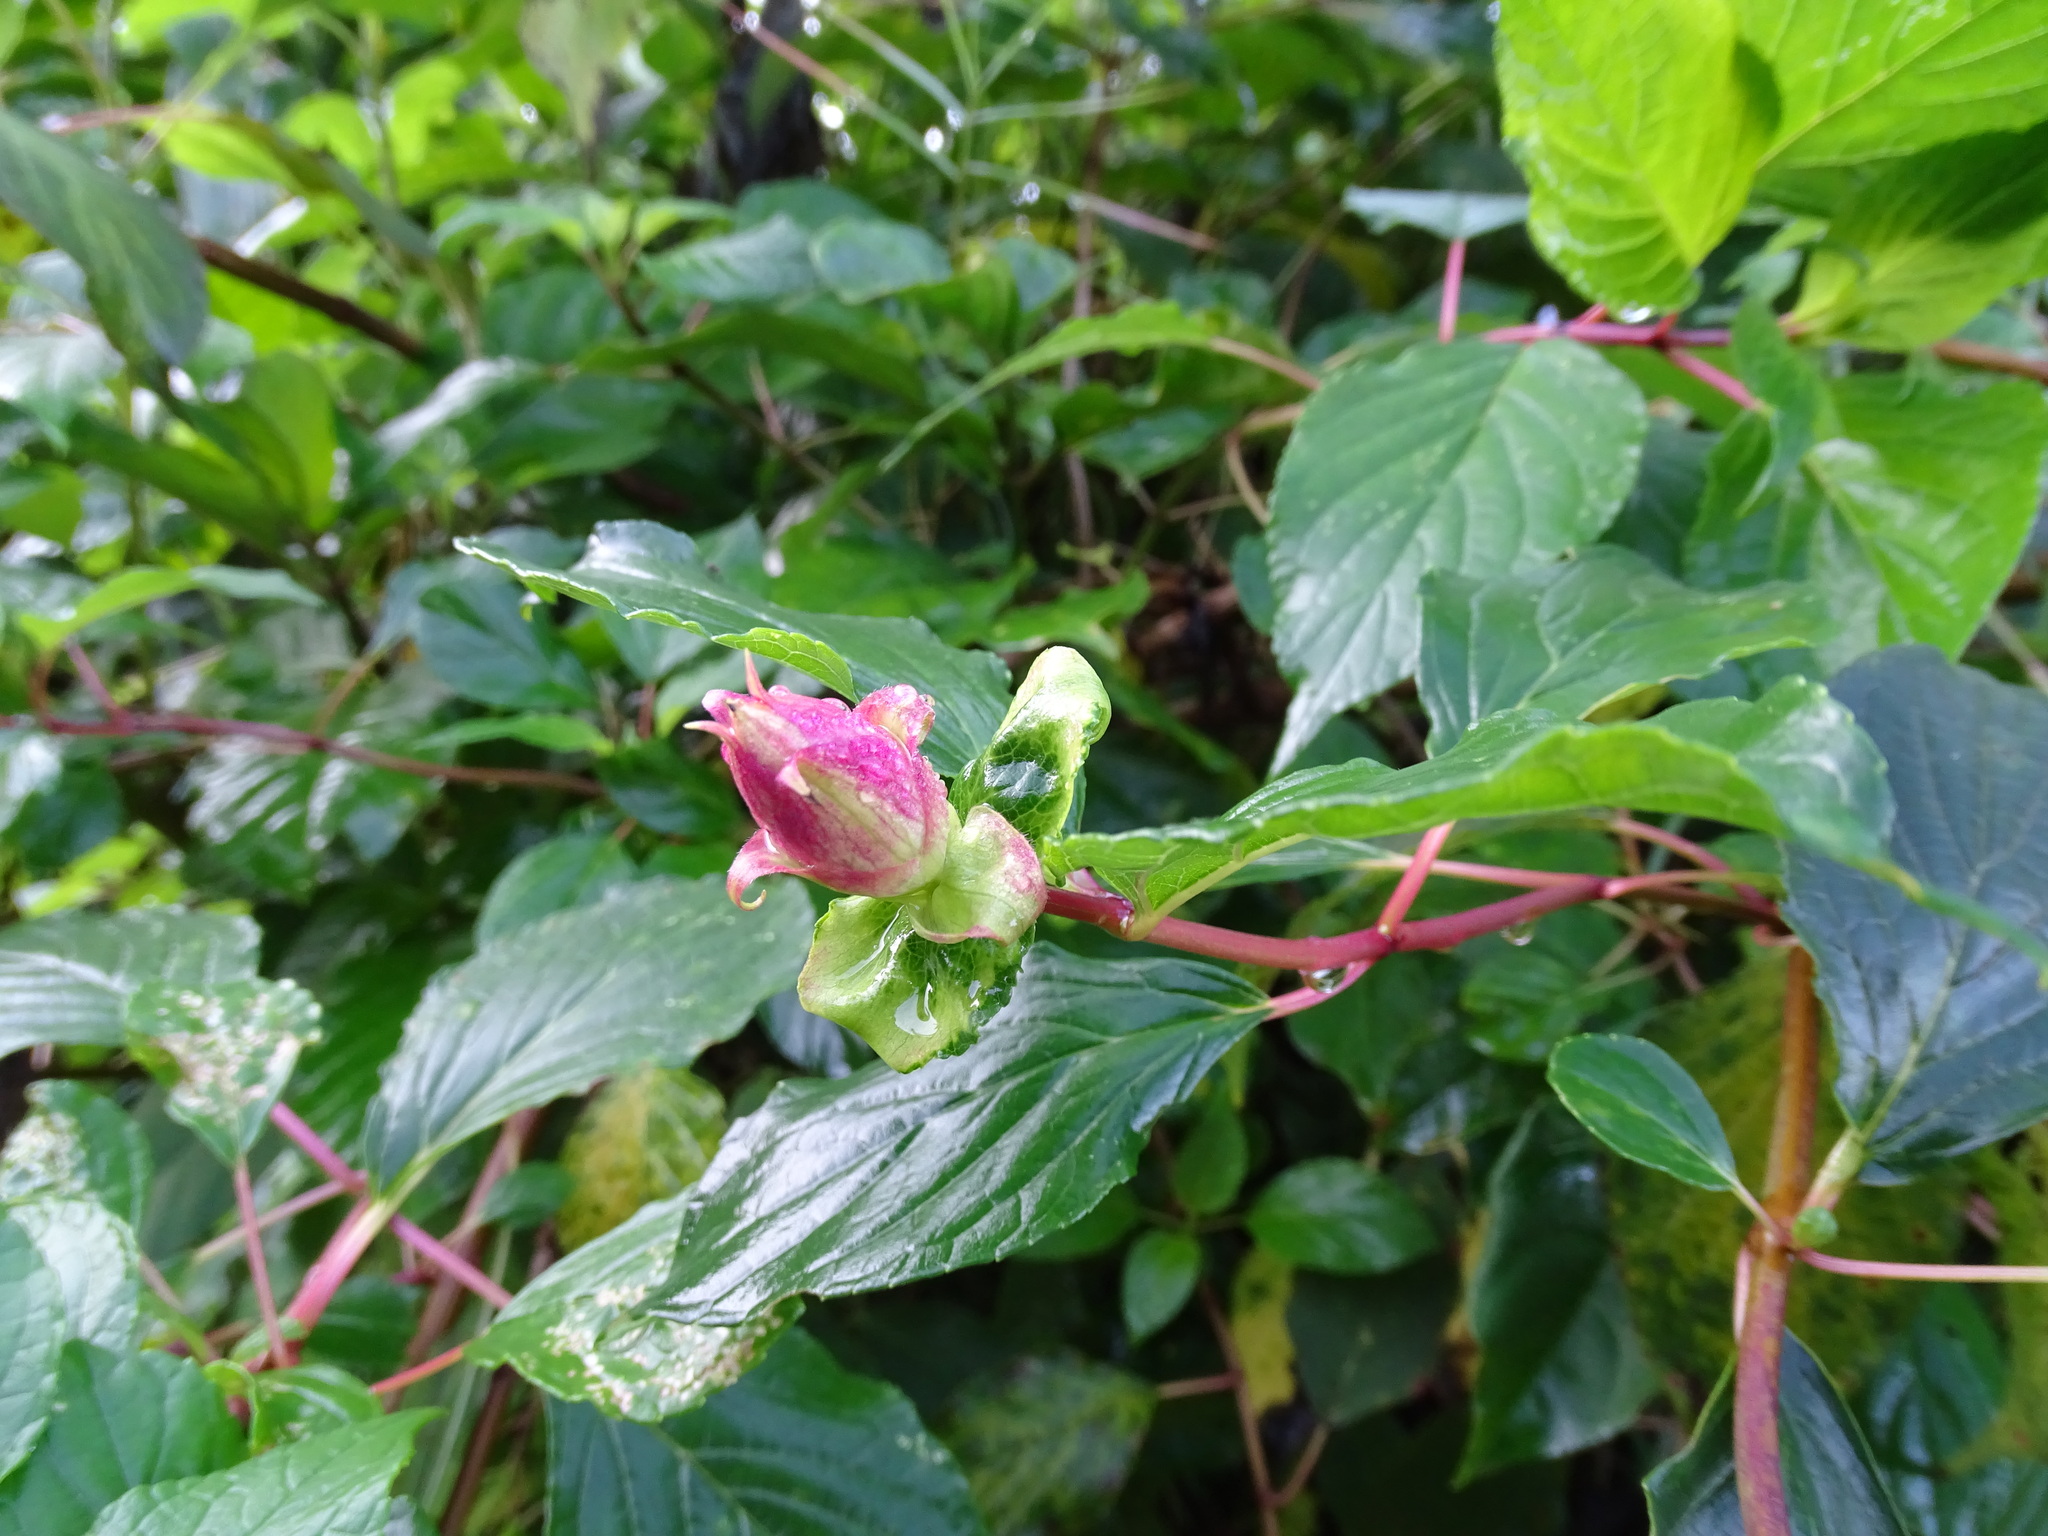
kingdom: Plantae
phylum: Tracheophyta
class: Magnoliopsida
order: Lamiales
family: Lamiaceae
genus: Salvia
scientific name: Salvia wagneriana
